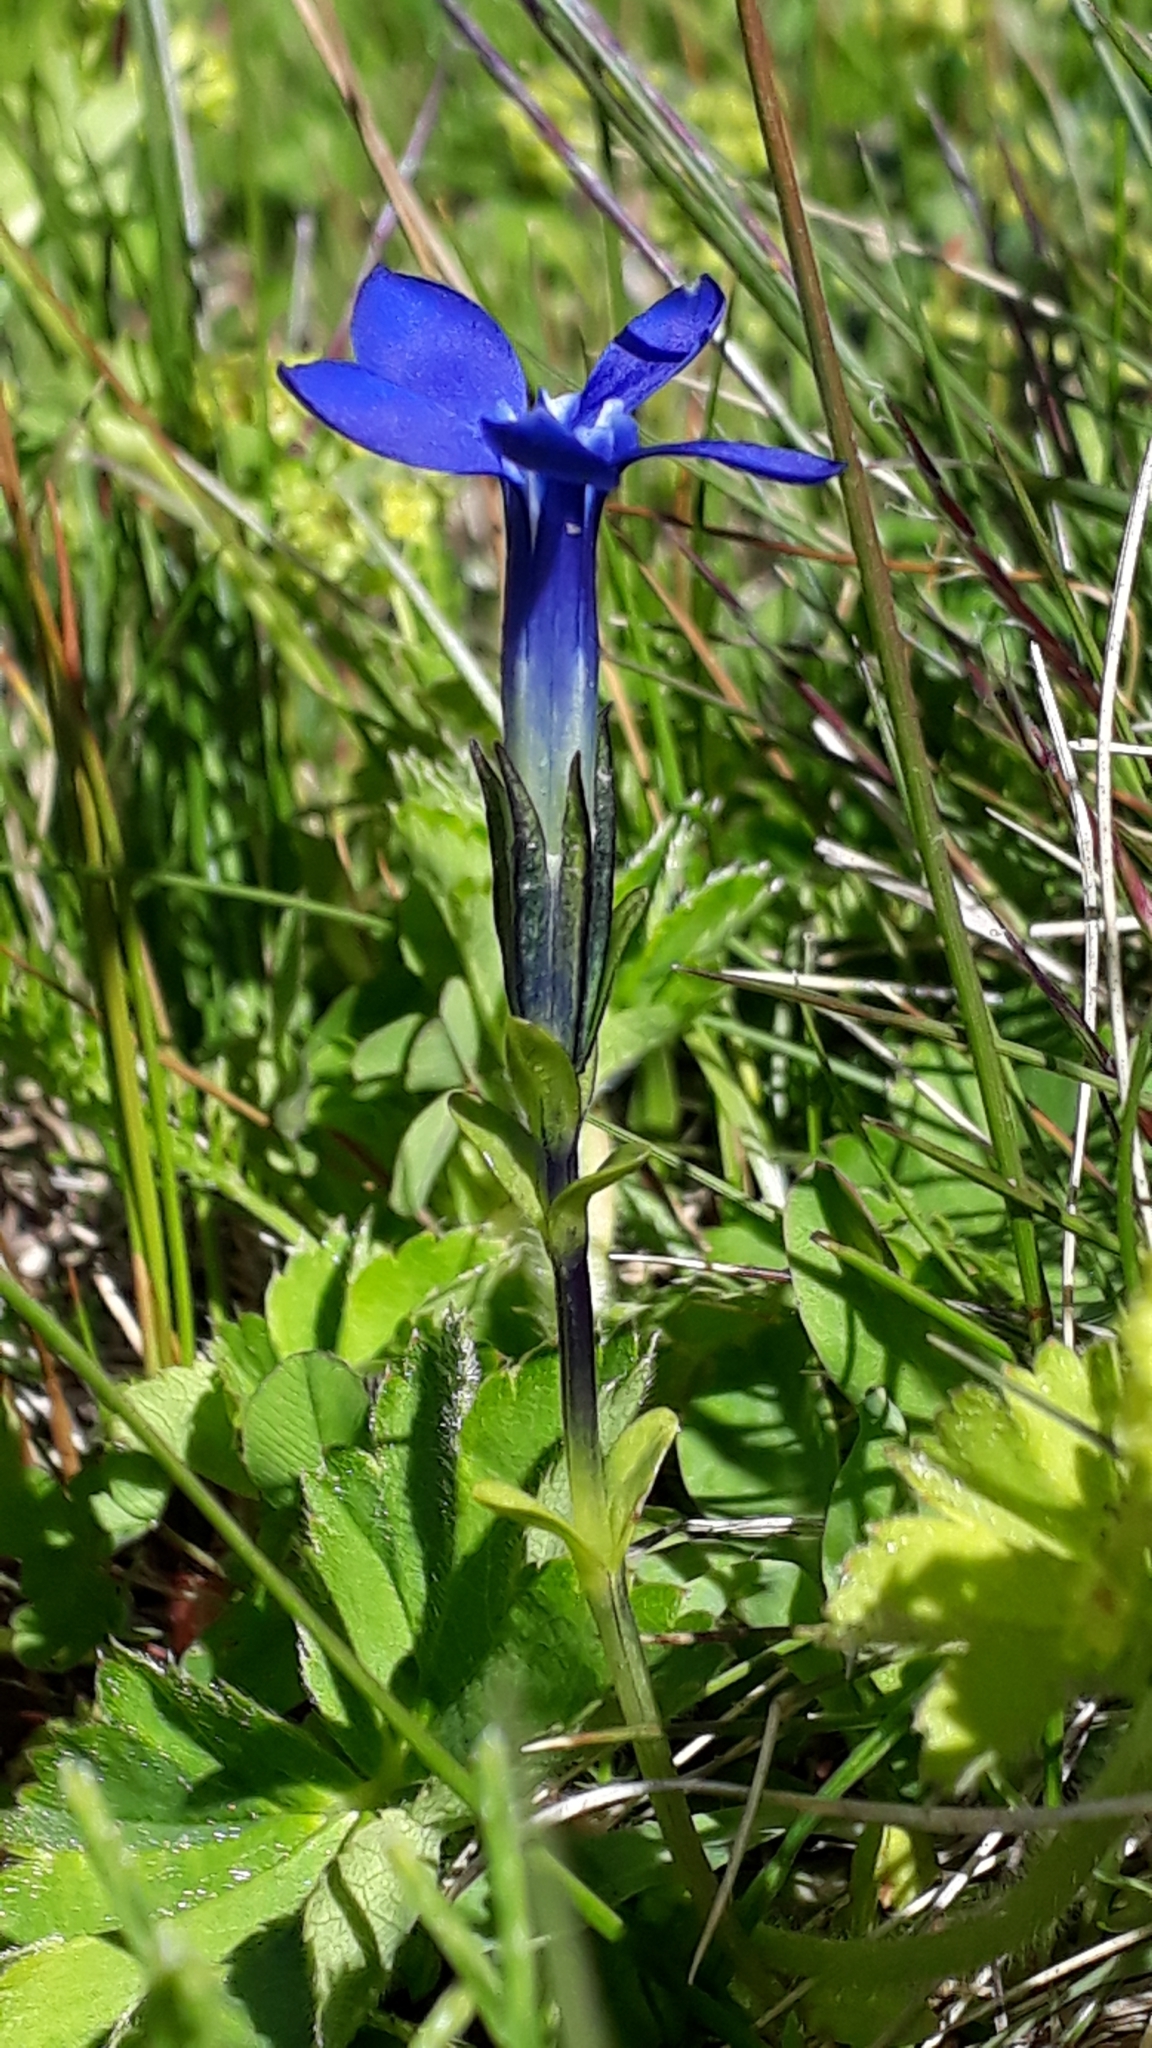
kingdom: Plantae
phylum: Tracheophyta
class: Magnoliopsida
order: Gentianales
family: Gentianaceae
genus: Gentiana
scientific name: Gentiana bavarica
